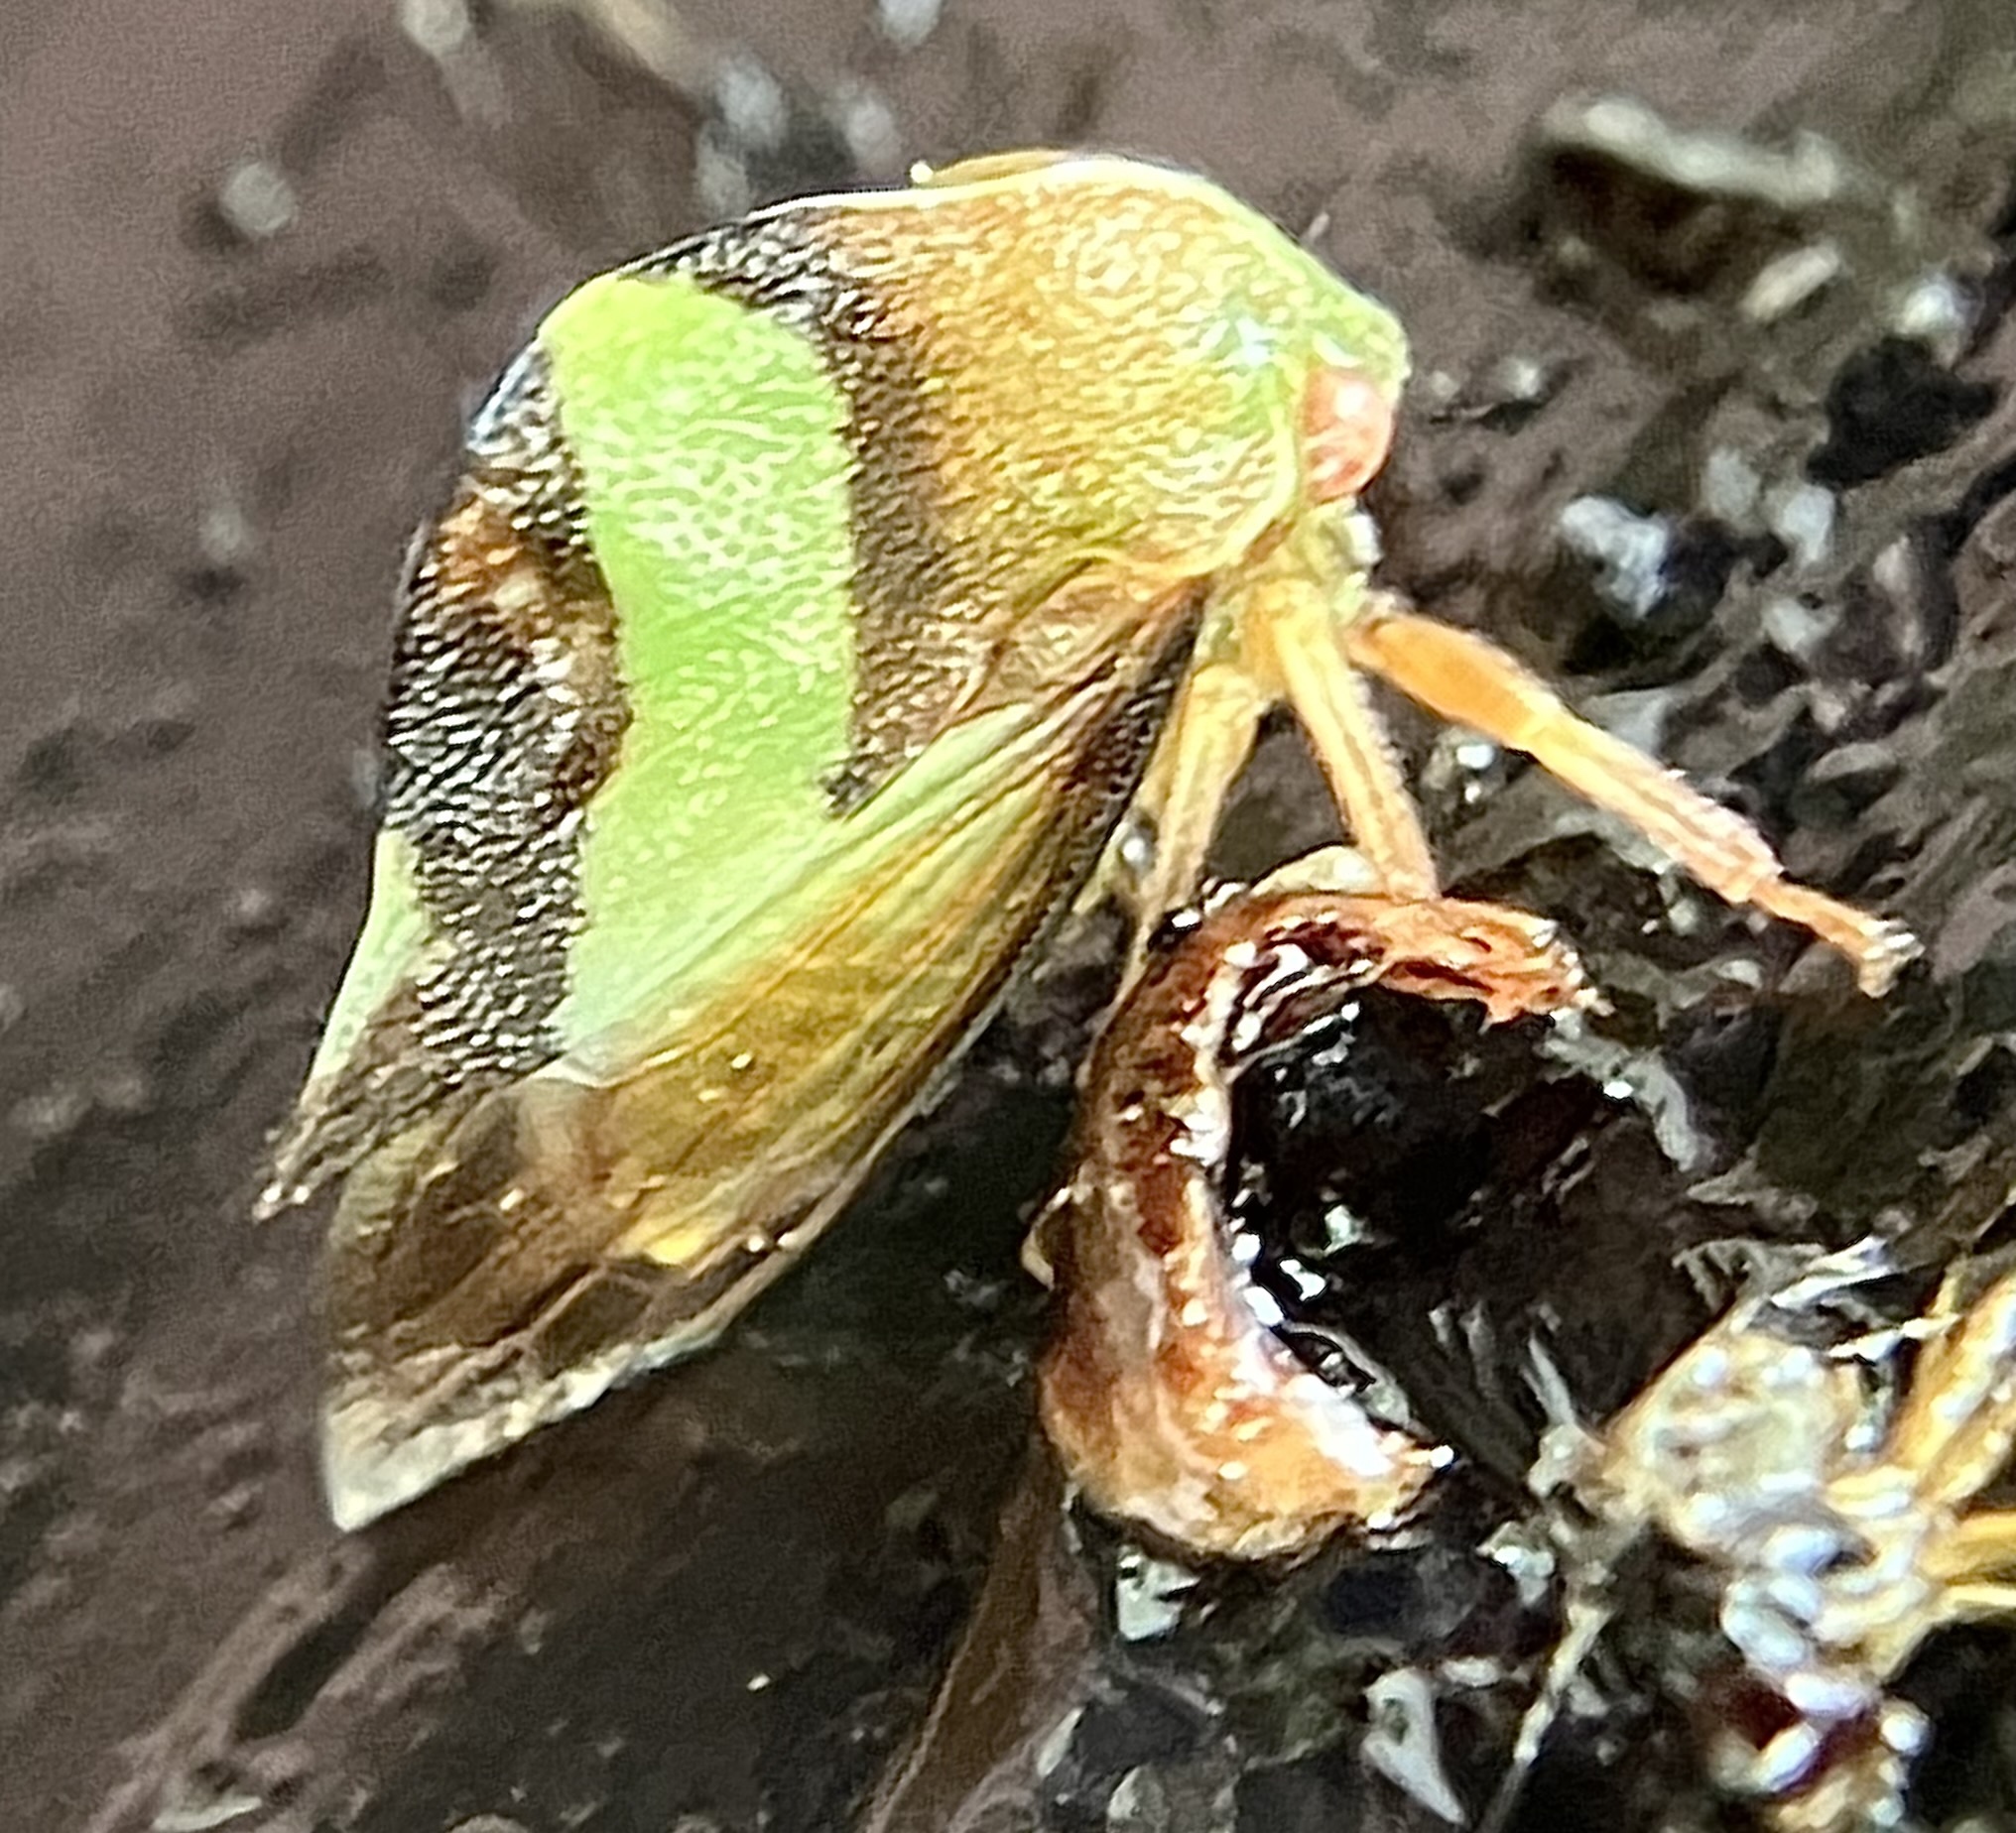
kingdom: Animalia
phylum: Arthropoda
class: Insecta
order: Hemiptera
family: Membracidae
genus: Smilia
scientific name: Smilia fasciata
